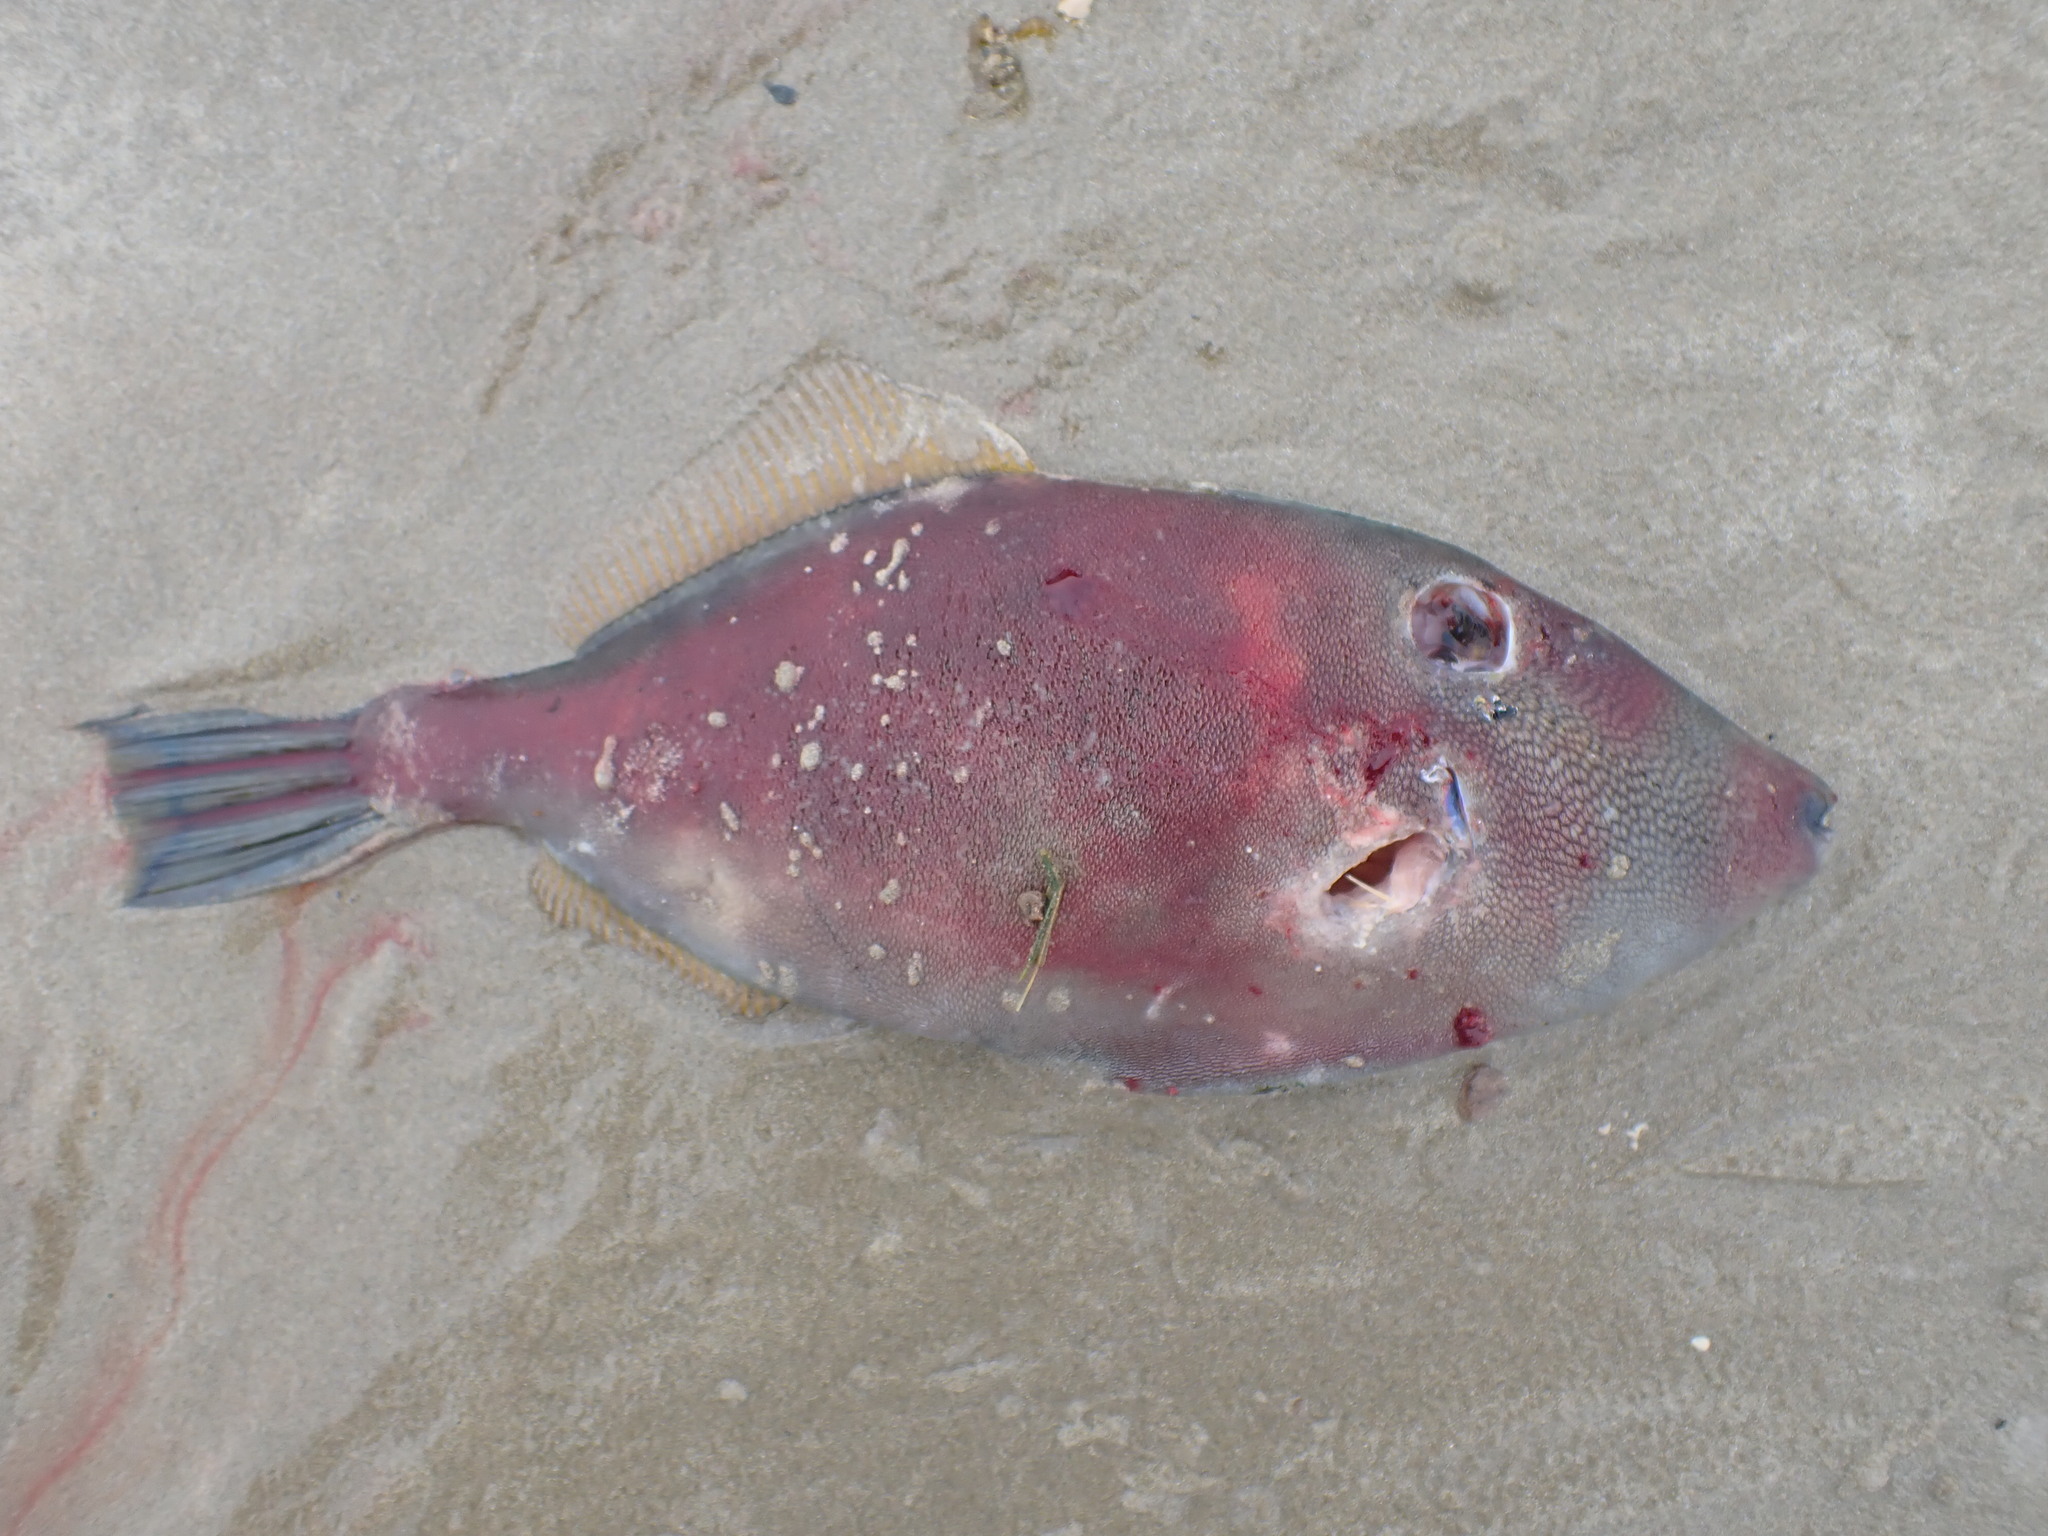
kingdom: Animalia
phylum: Chordata
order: Tetraodontiformes
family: Monacanthidae
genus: Meuschenia
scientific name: Meuschenia scaber
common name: Cosmopolitan leatherjacket
